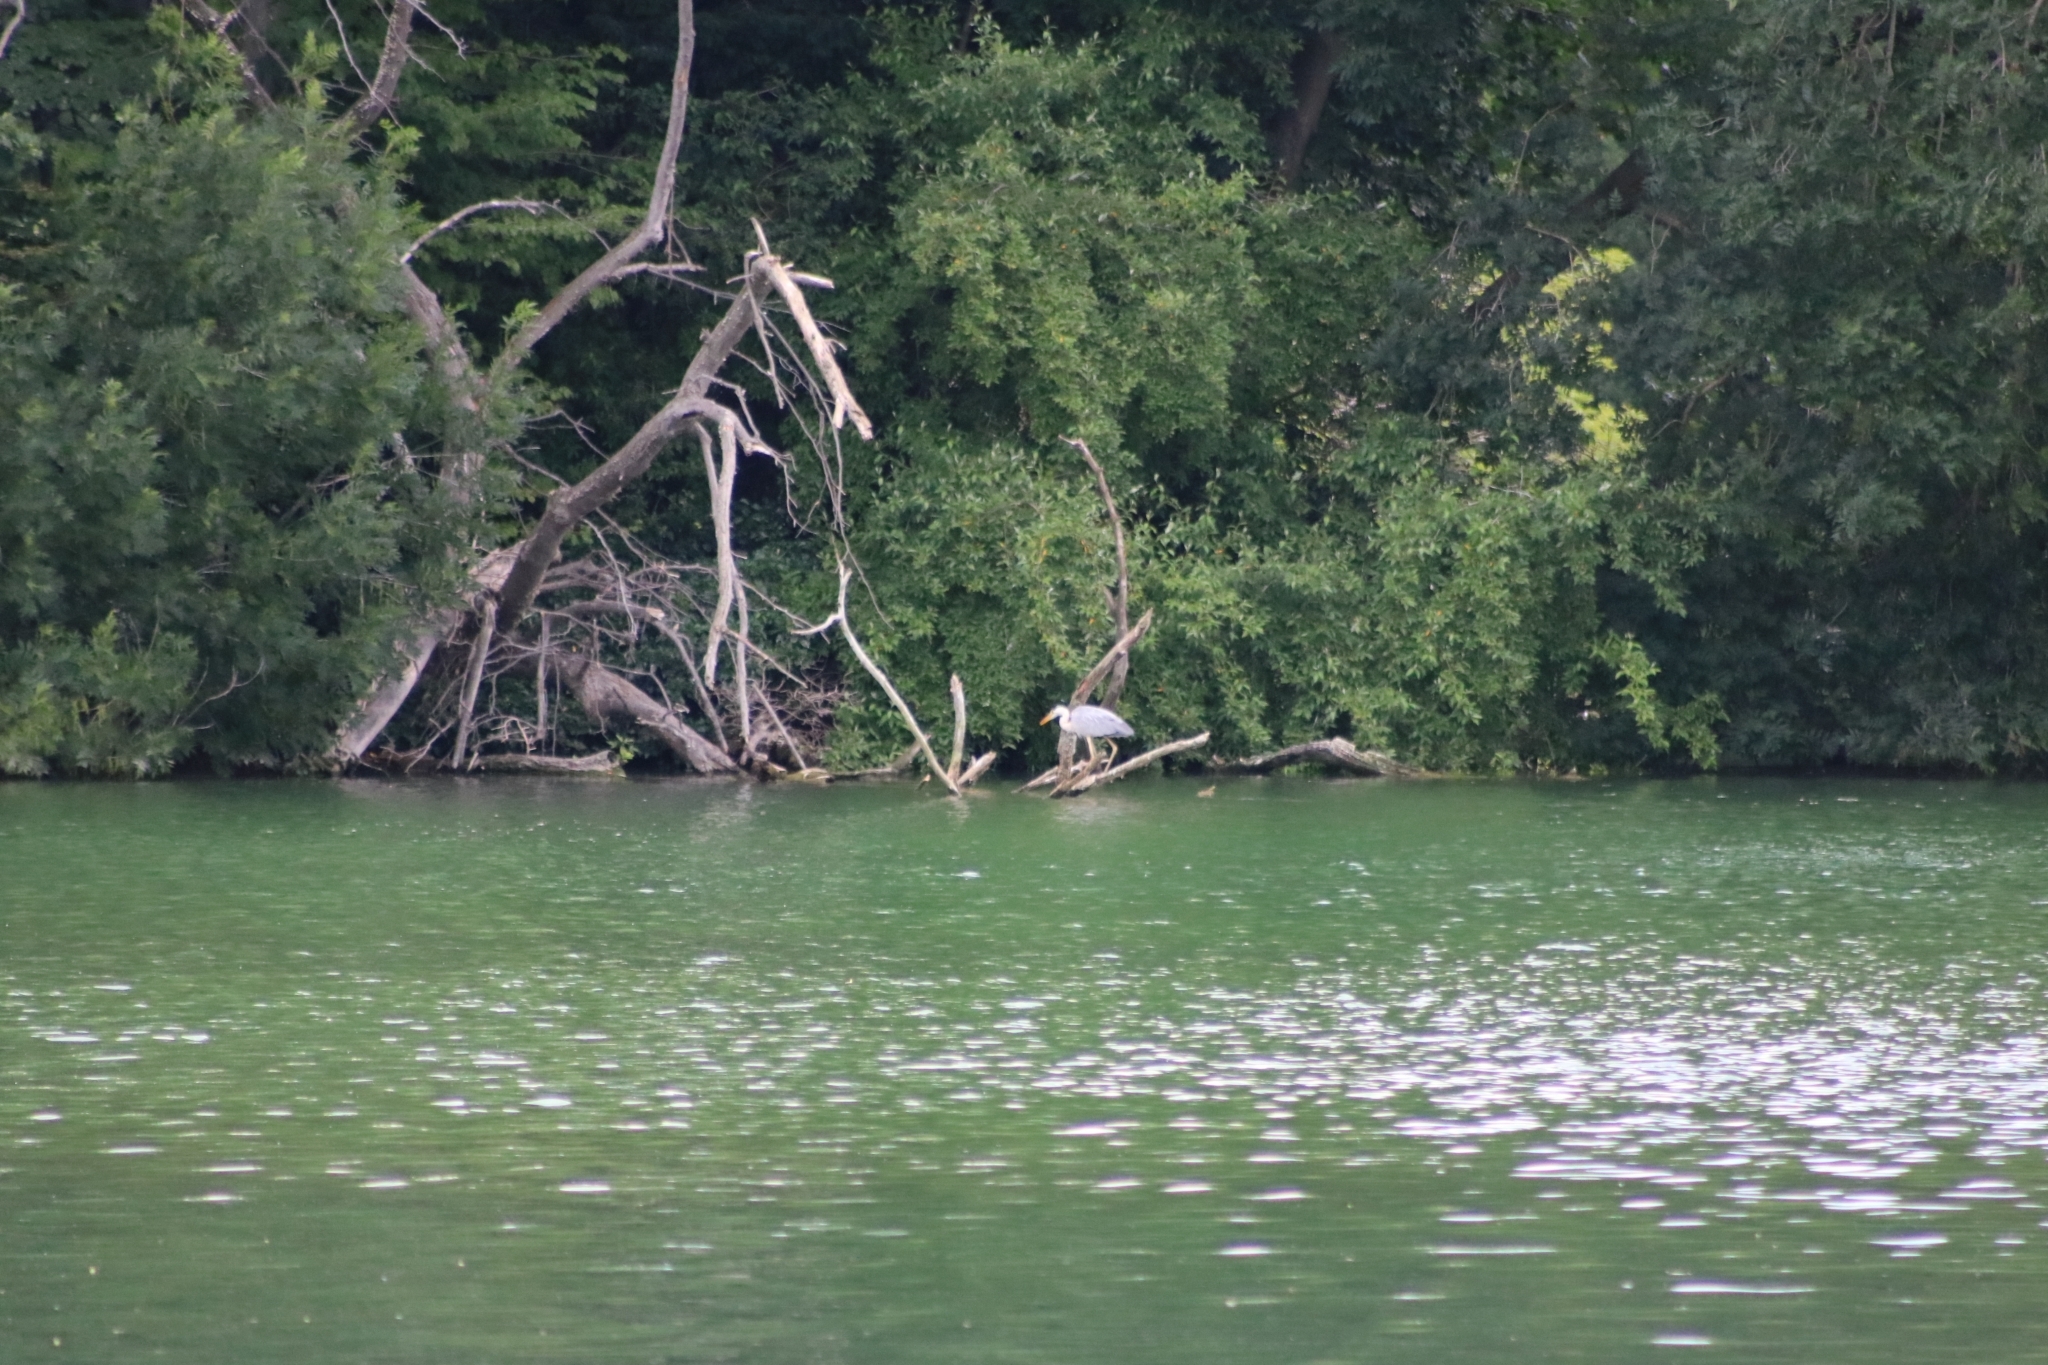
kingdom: Animalia
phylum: Chordata
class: Aves
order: Pelecaniformes
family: Ardeidae
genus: Ardea
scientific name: Ardea cinerea
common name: Grey heron
